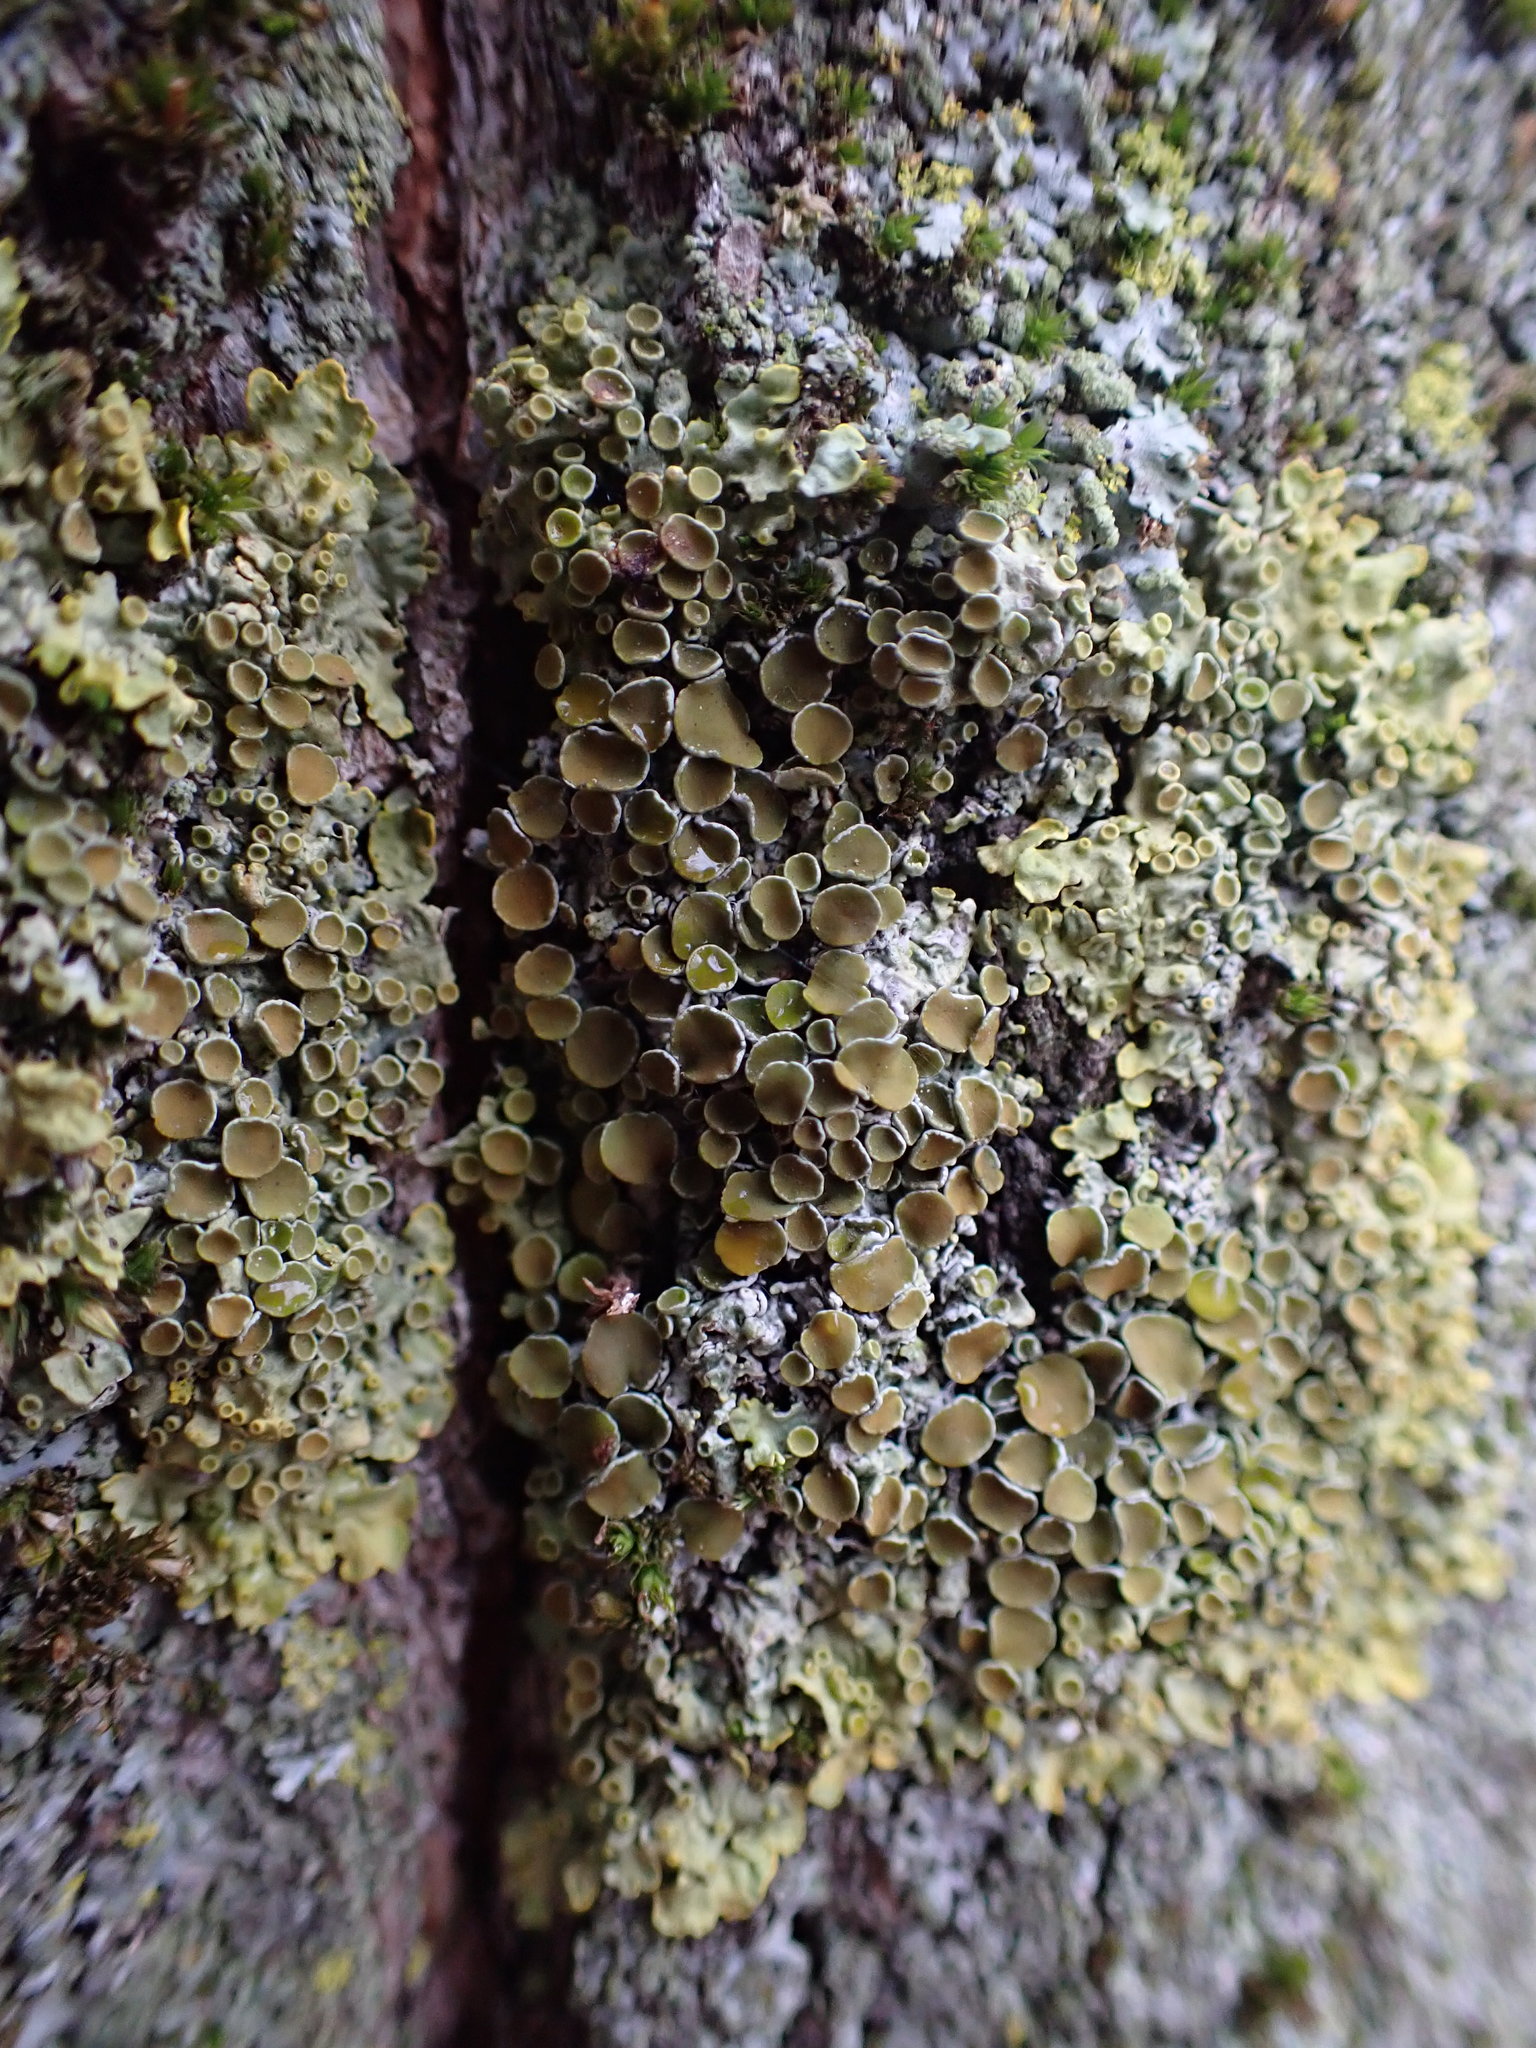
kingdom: Fungi
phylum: Ascomycota
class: Lecanoromycetes
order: Teloschistales
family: Teloschistaceae
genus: Xanthoria
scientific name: Xanthoria parietina
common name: Common orange lichen
